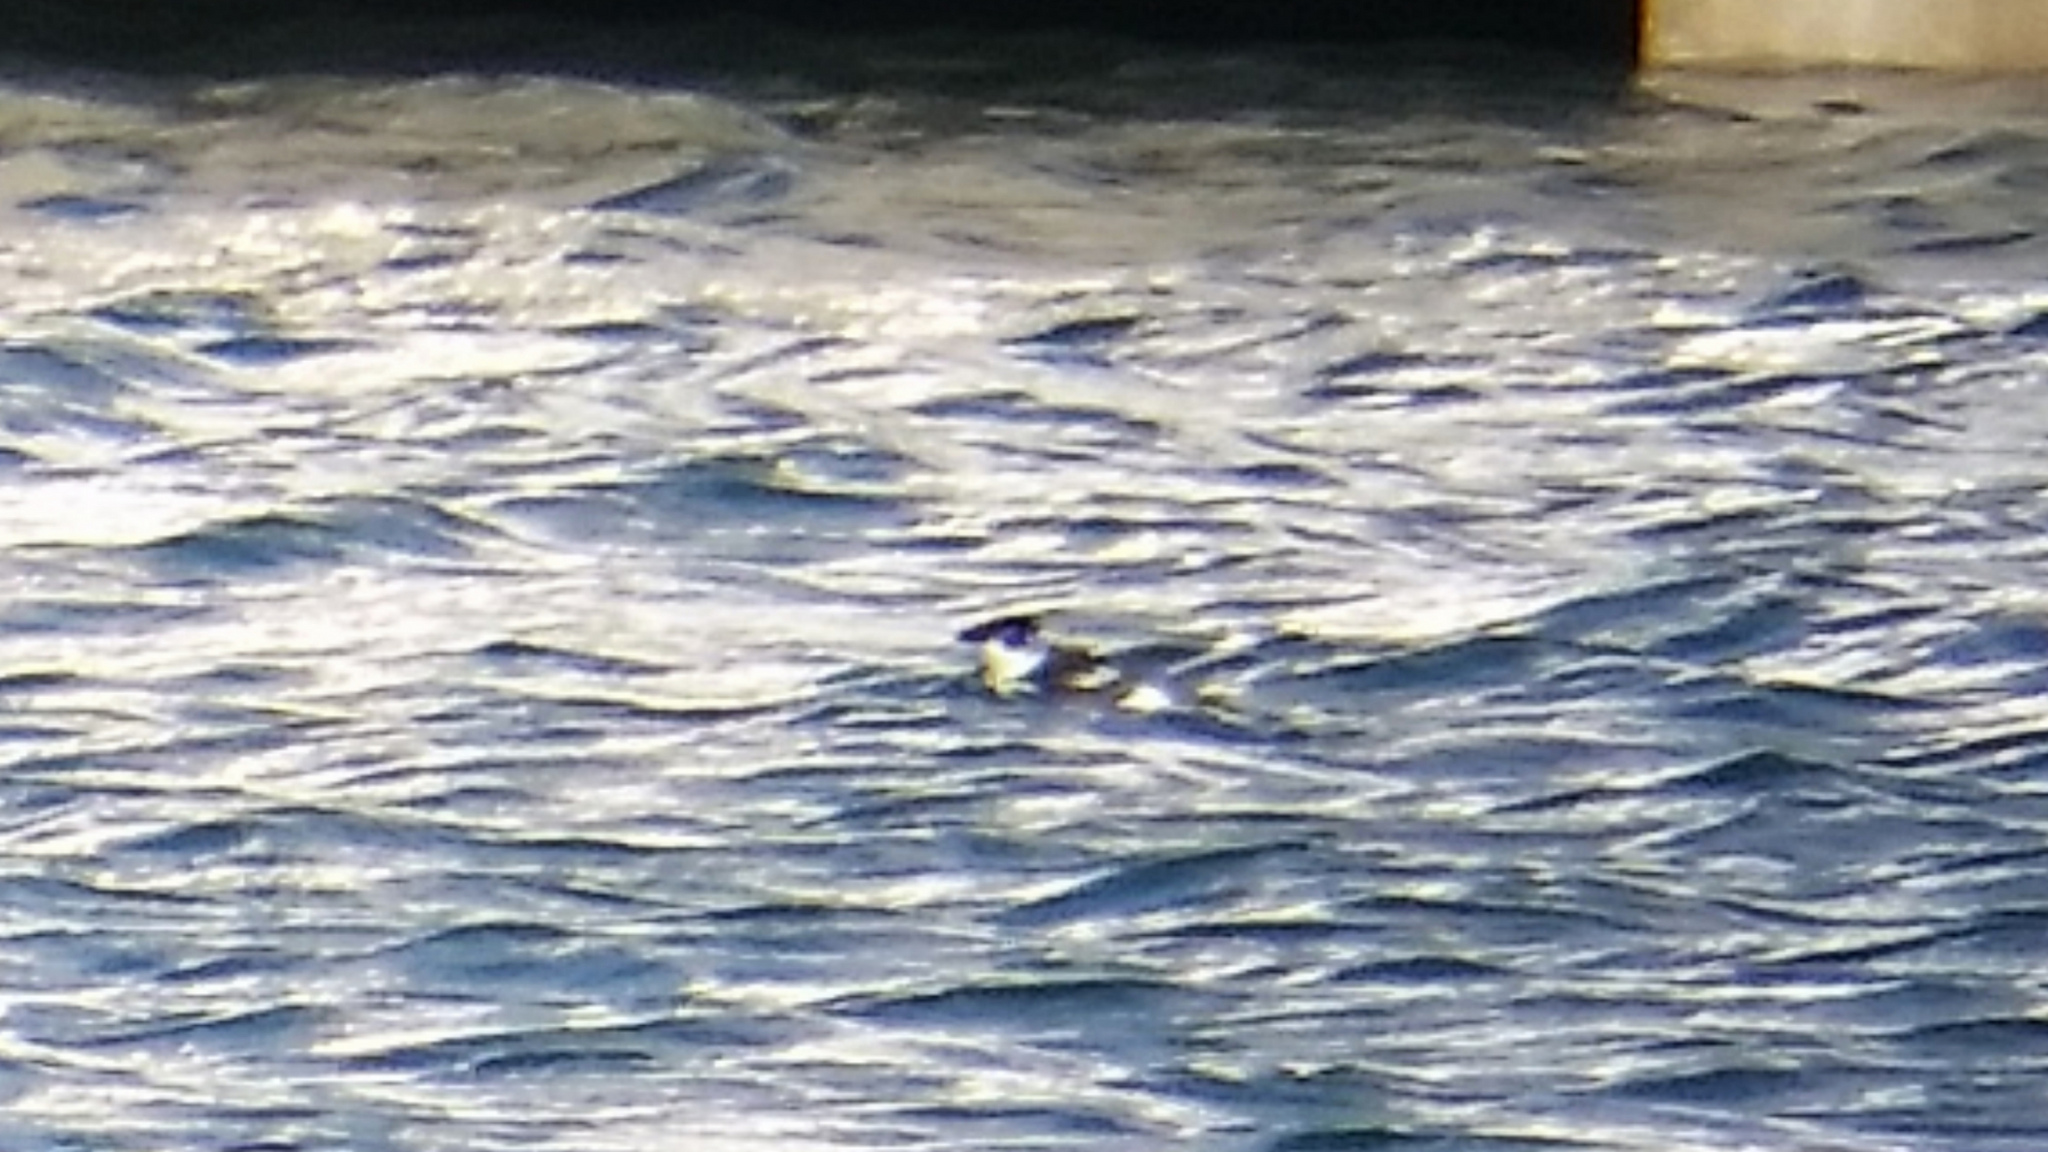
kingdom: Animalia
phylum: Chordata
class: Aves
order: Charadriiformes
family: Alcidae
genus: Alle
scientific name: Alle alle
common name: Little auk
